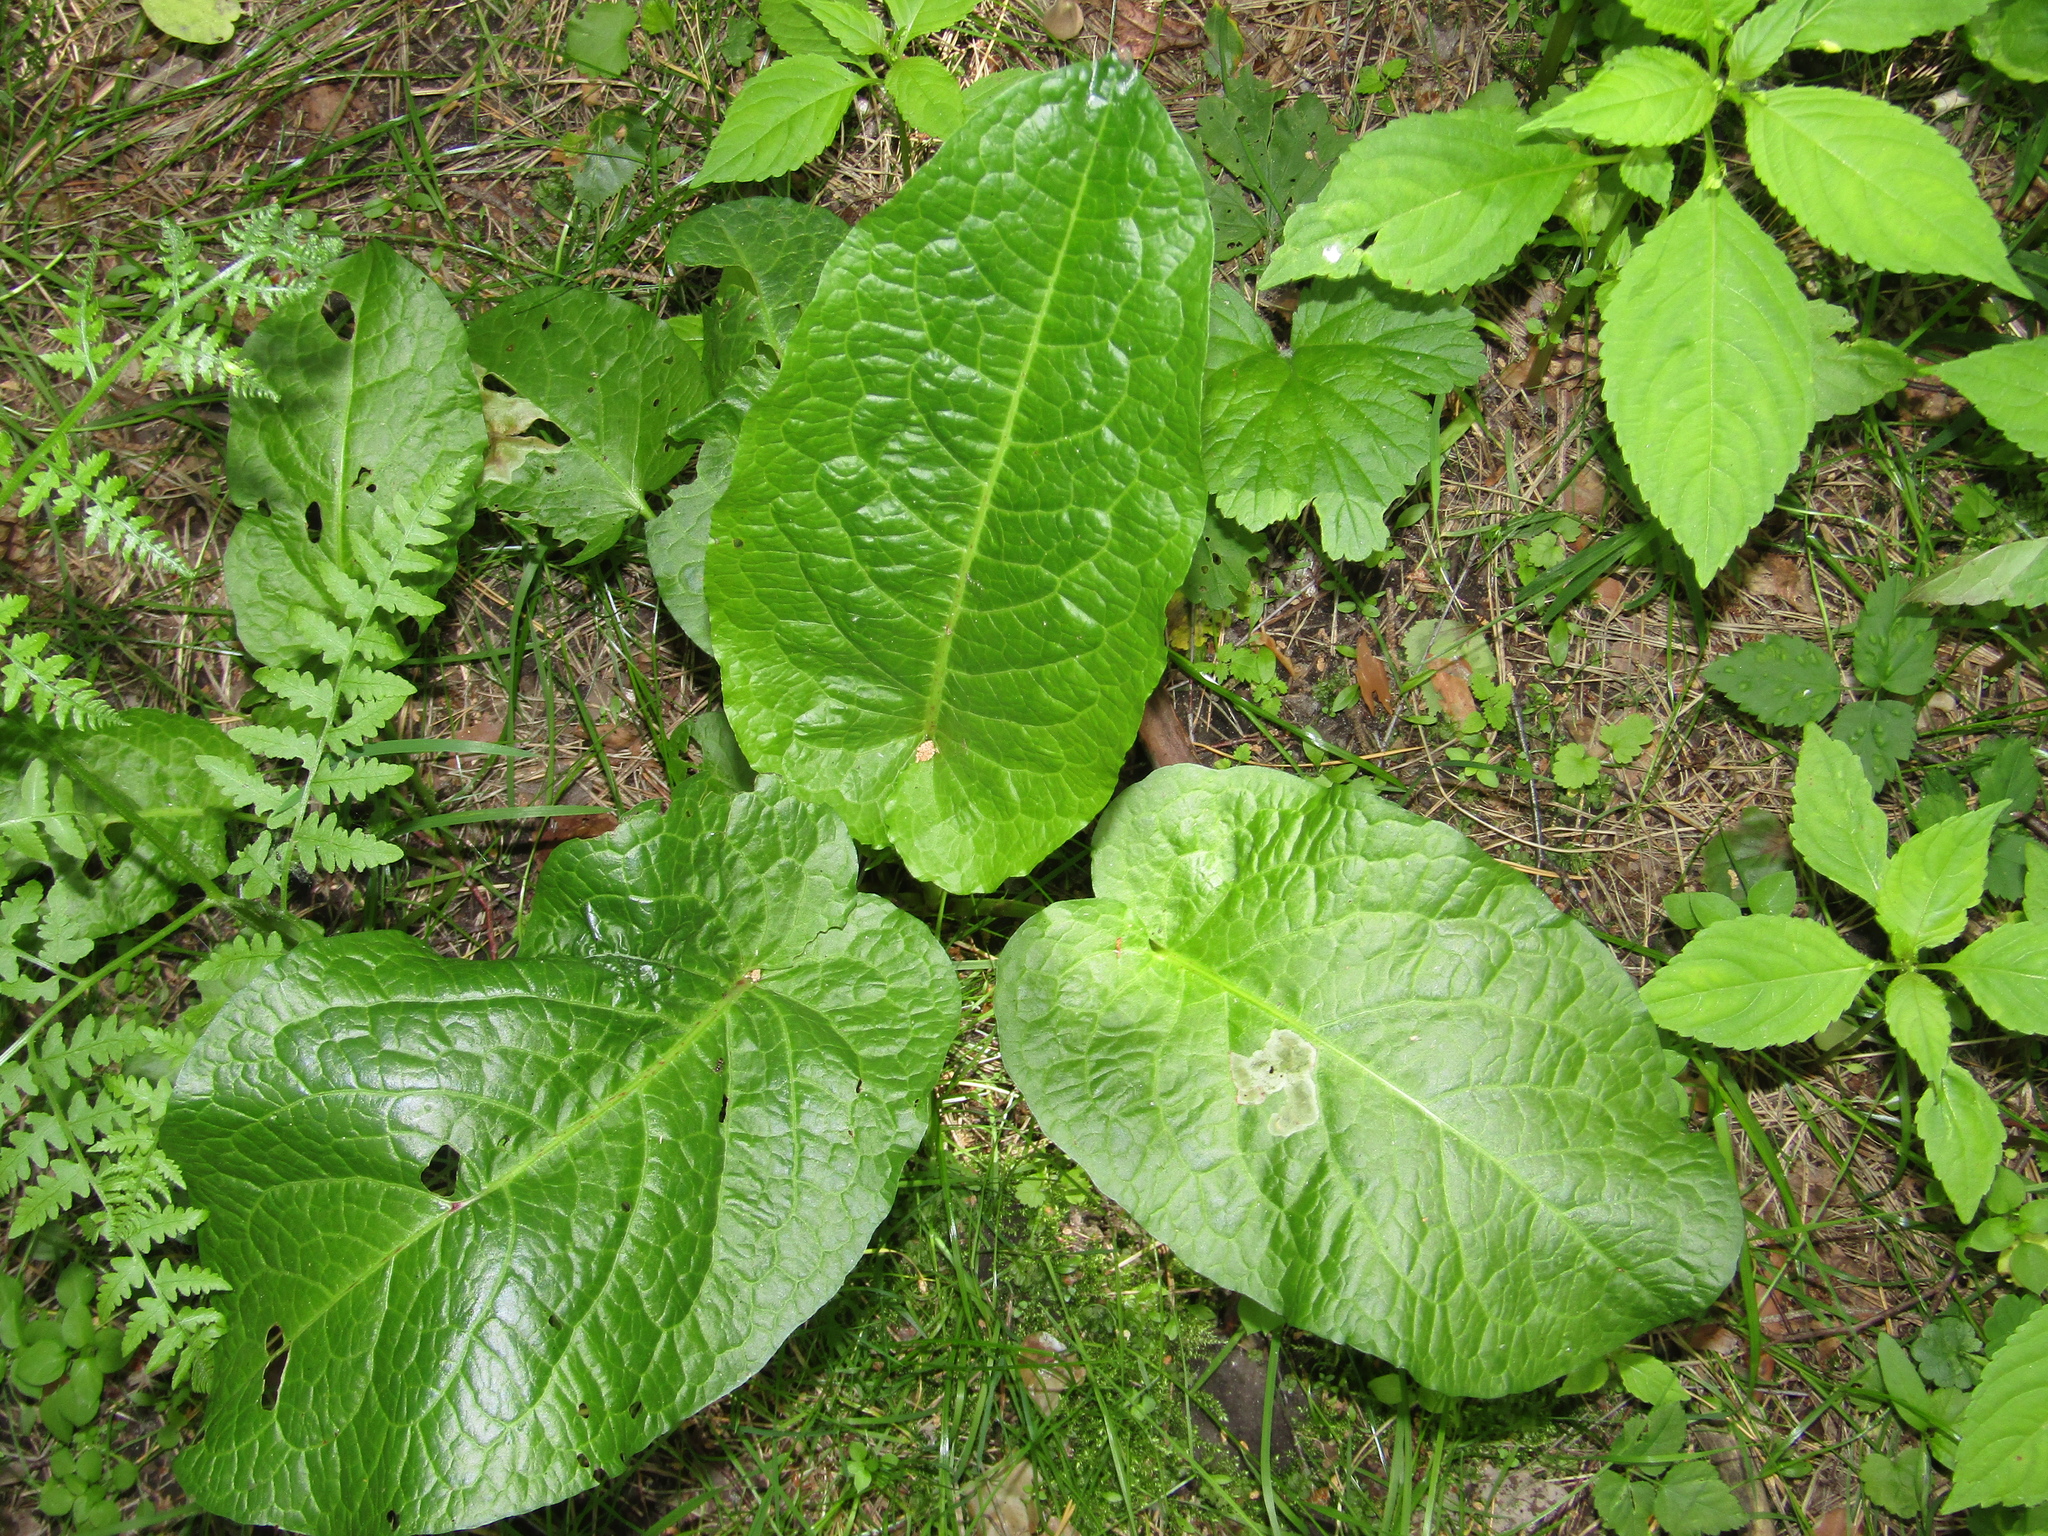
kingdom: Plantae
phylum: Tracheophyta
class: Magnoliopsida
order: Caryophyllales
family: Polygonaceae
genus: Rumex
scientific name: Rumex obtusifolius
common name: Bitter dock
